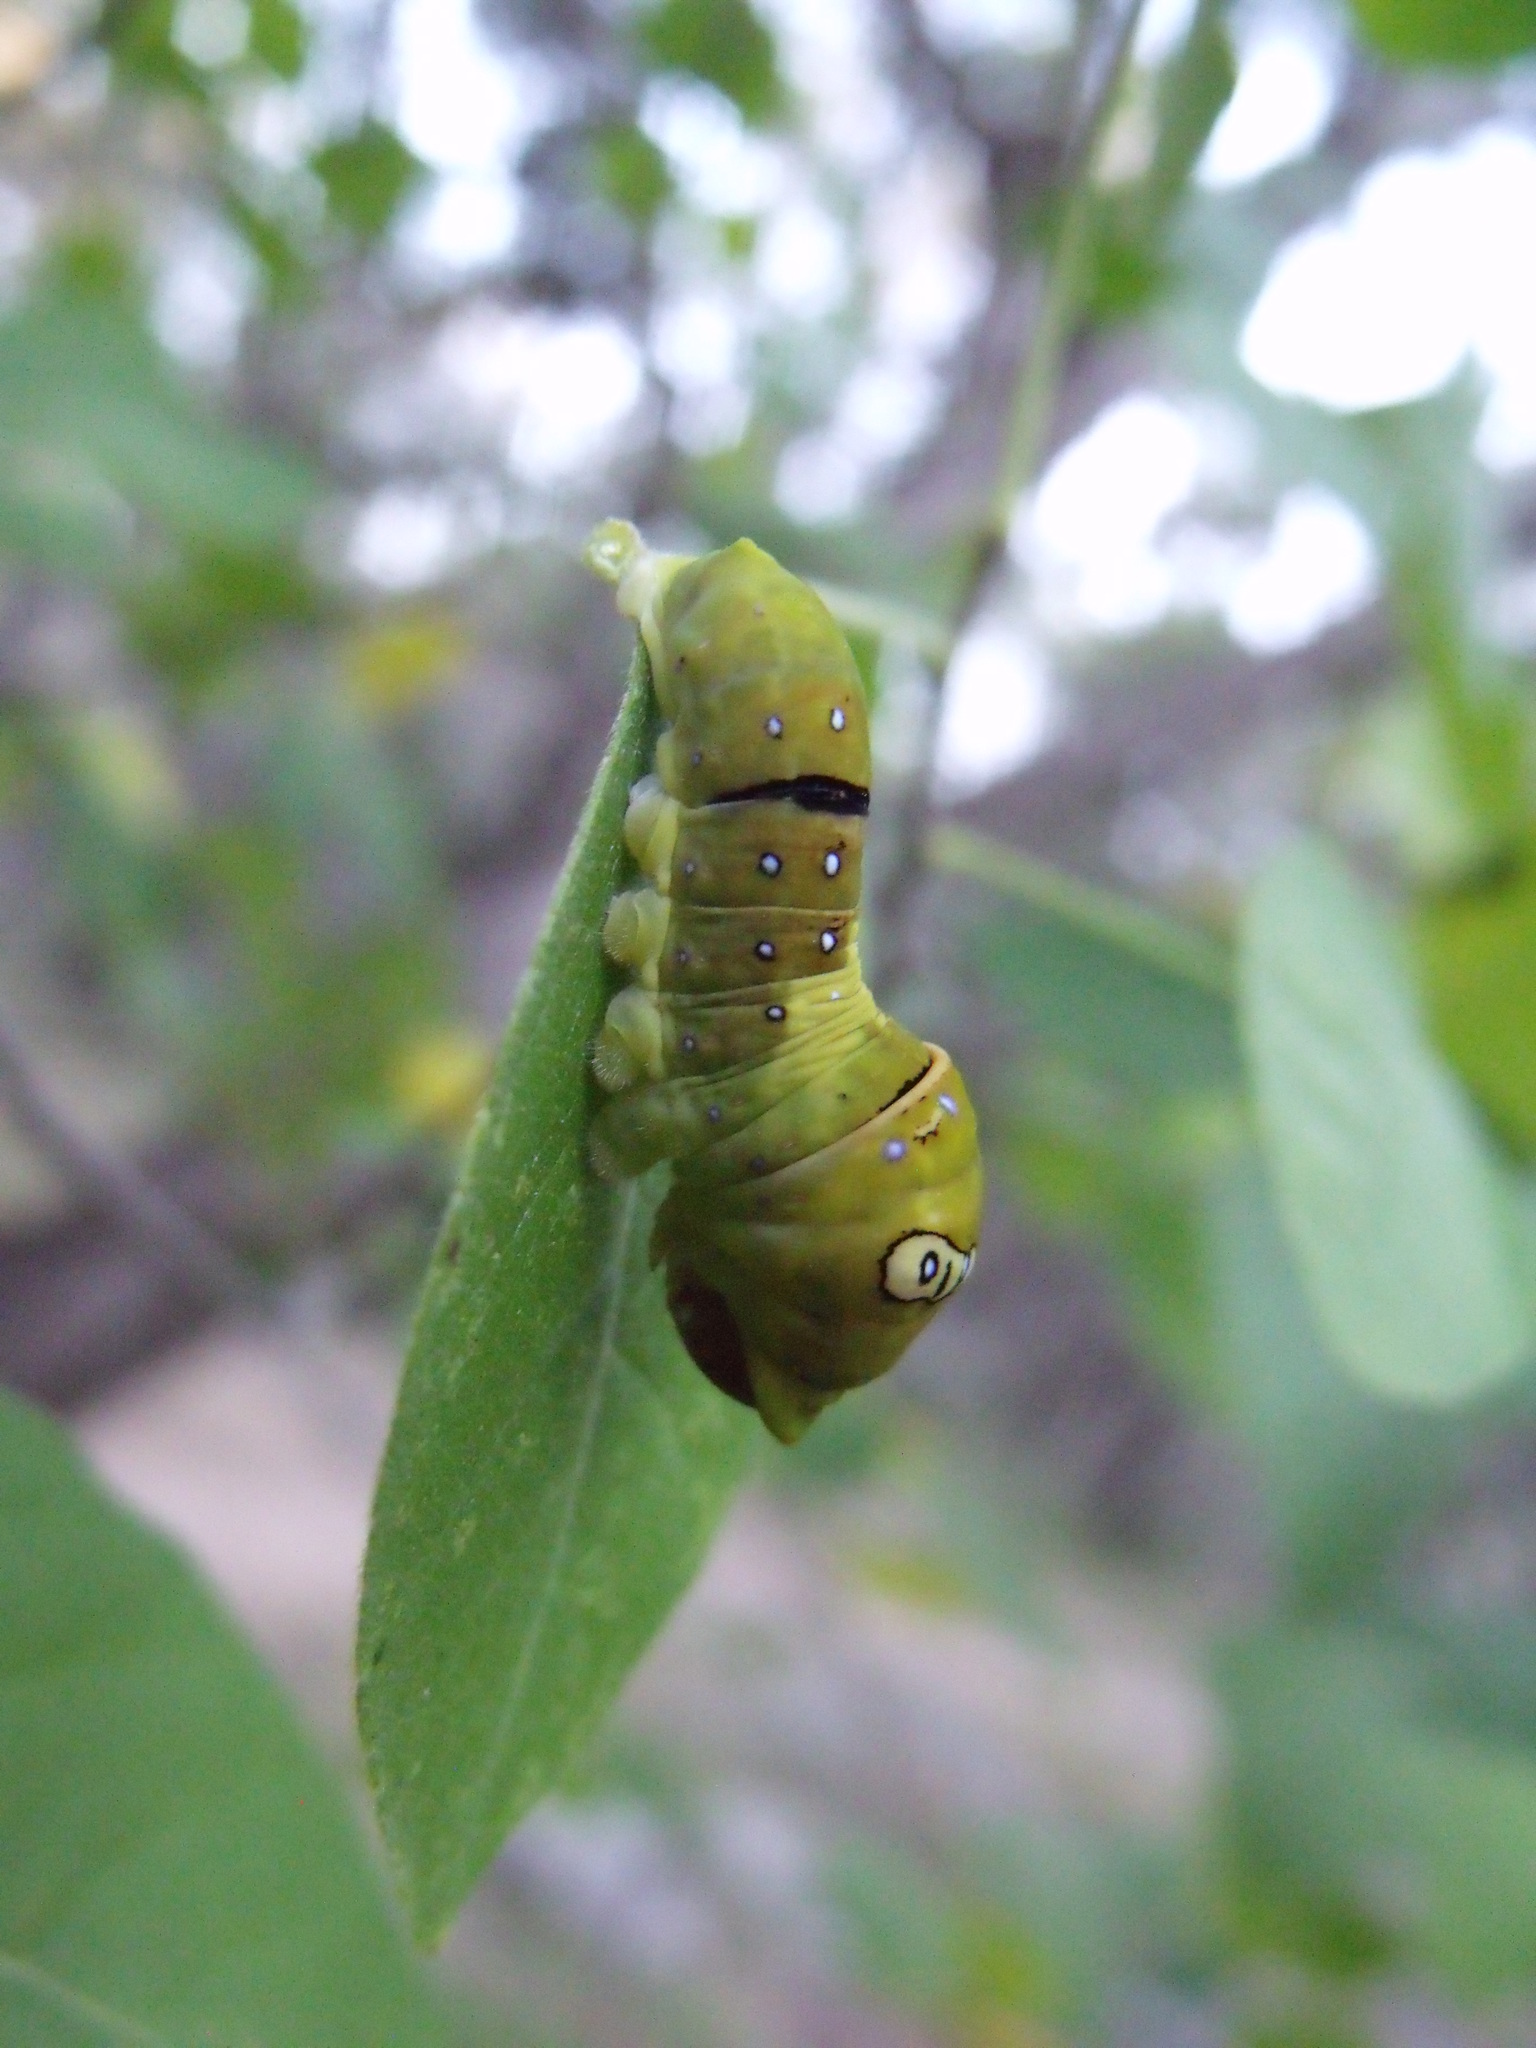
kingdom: Animalia
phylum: Arthropoda
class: Insecta
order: Lepidoptera
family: Papilionidae
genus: Papilio
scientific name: Papilio multicaudata
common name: Two-tailed tiger swallowtail
